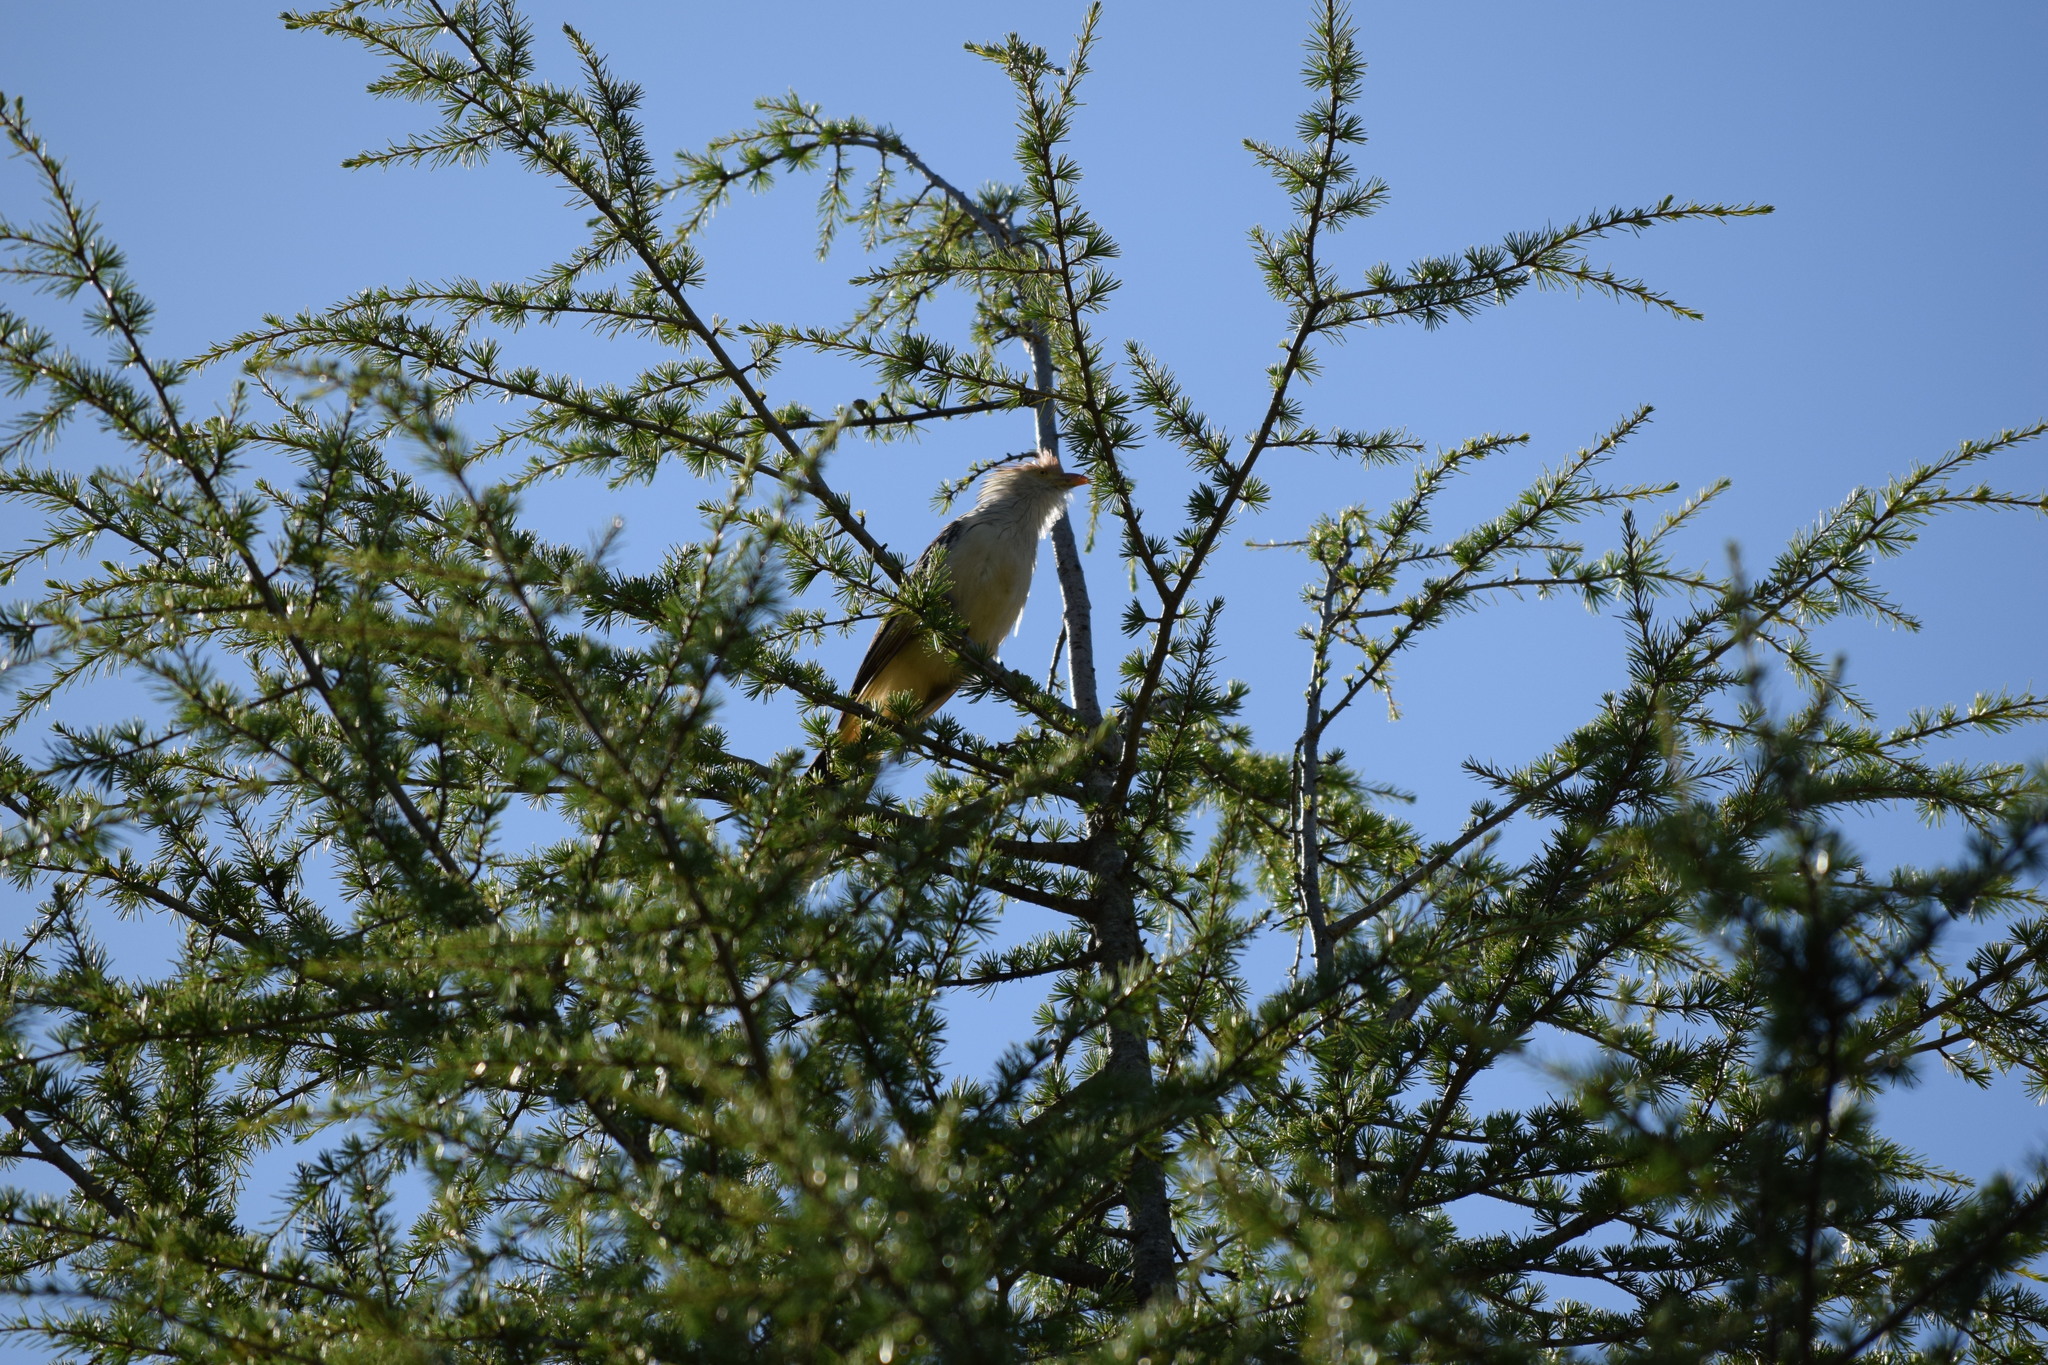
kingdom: Animalia
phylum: Chordata
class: Aves
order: Cuculiformes
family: Cuculidae
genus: Guira
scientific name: Guira guira
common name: Guira cuckoo
